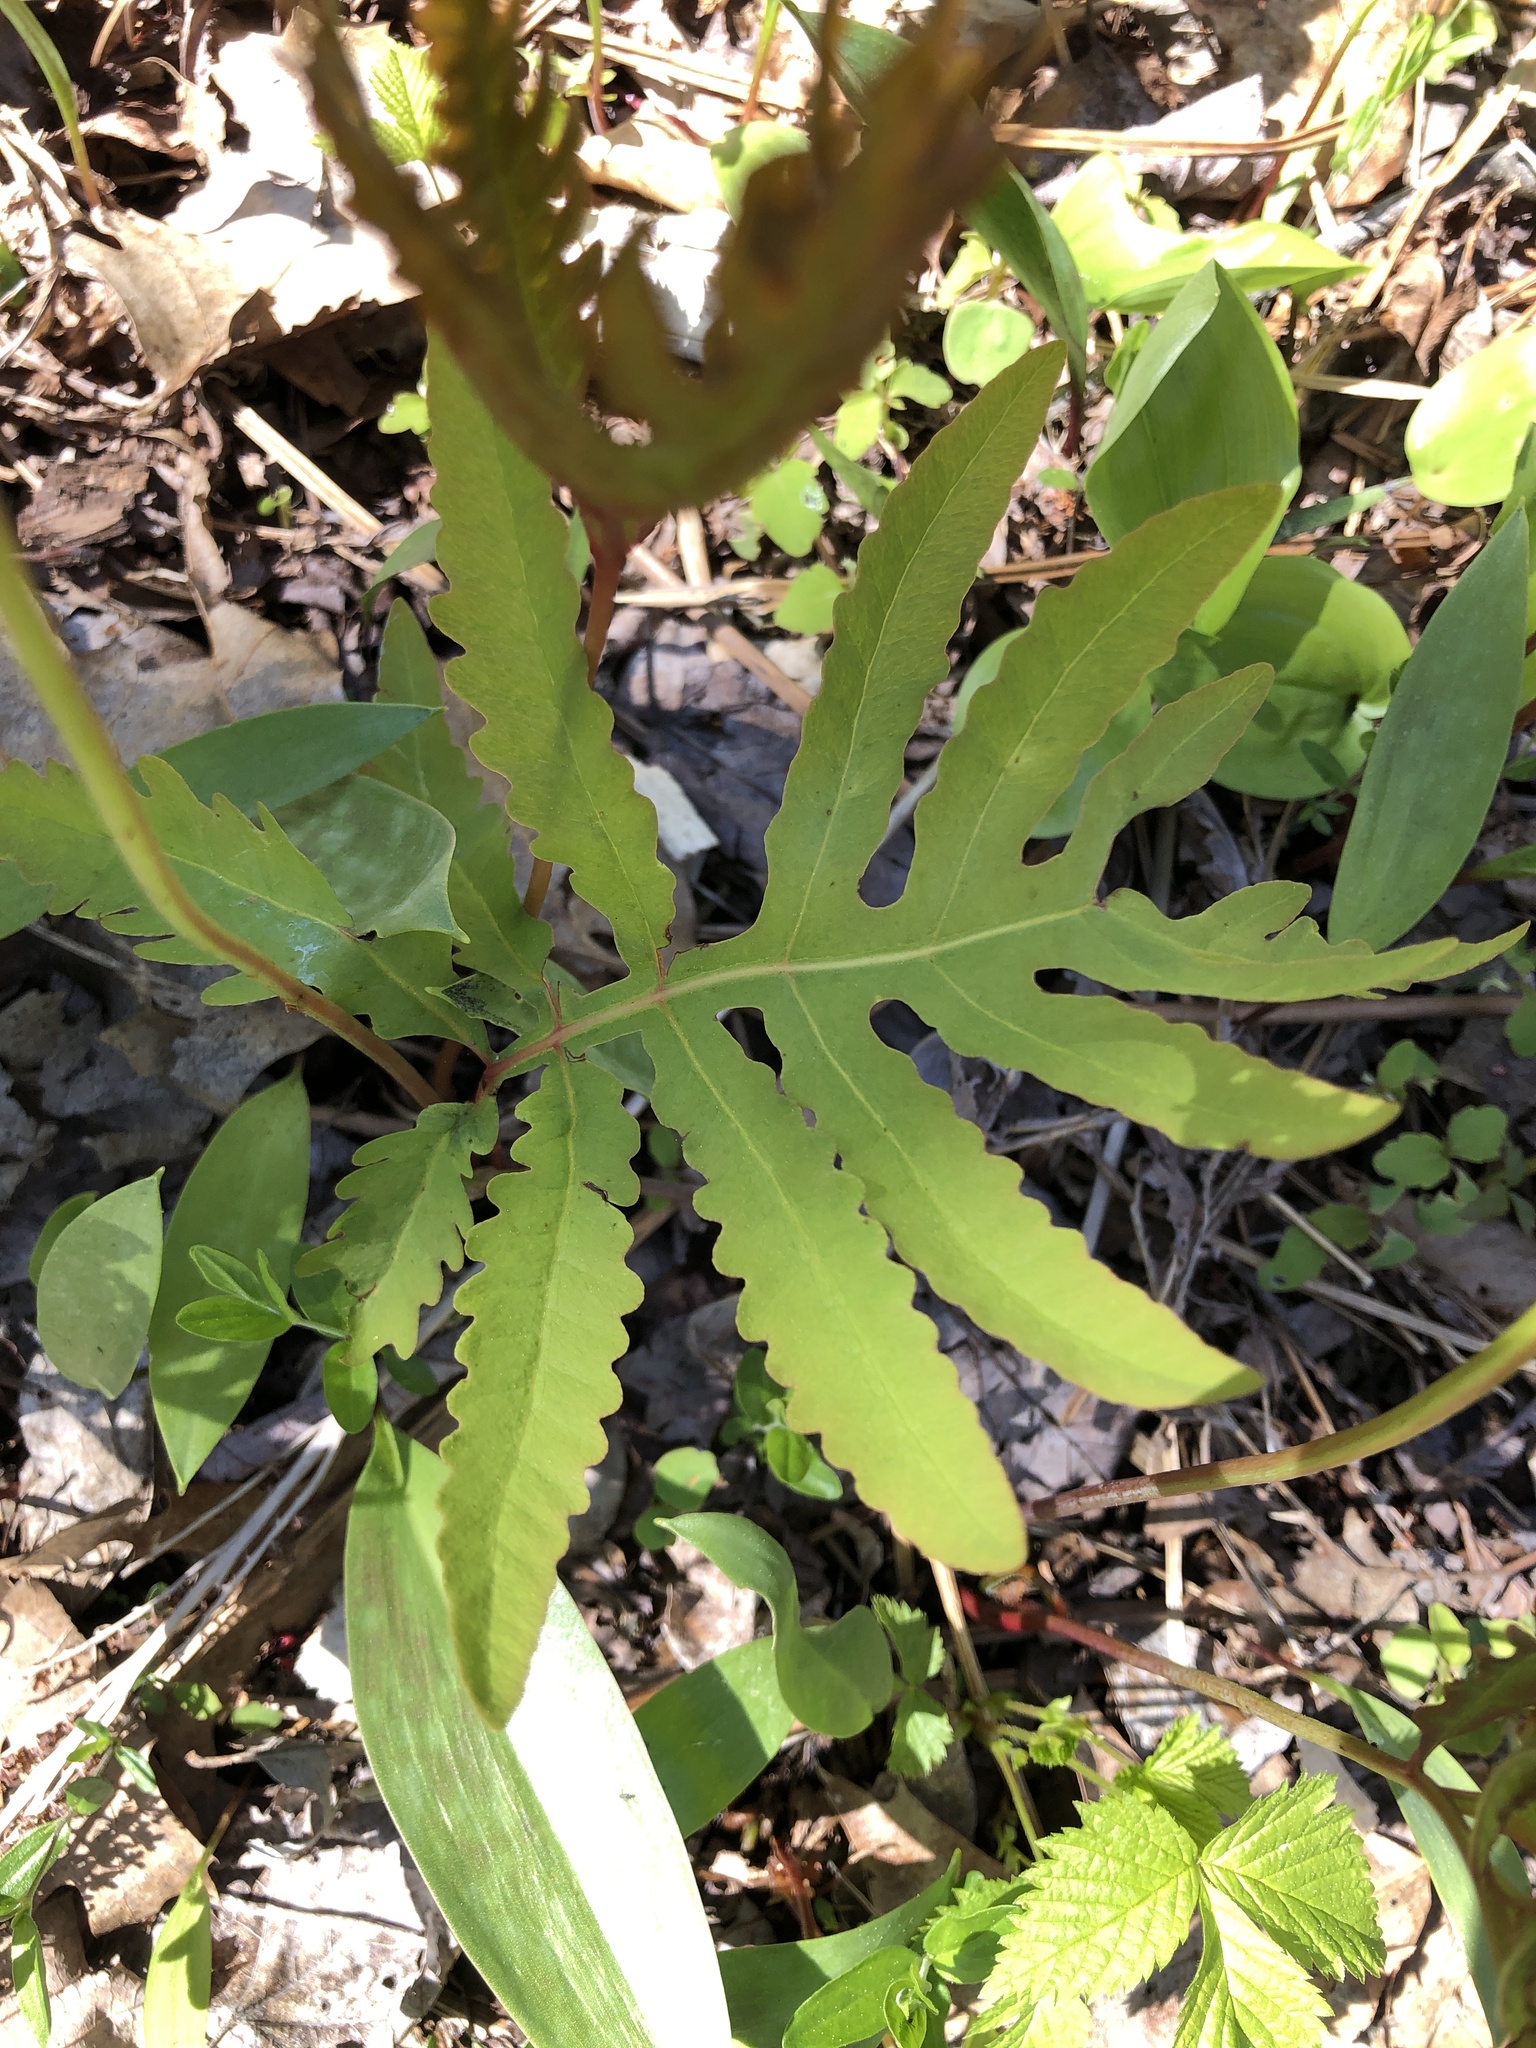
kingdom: Plantae
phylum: Tracheophyta
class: Polypodiopsida
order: Polypodiales
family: Onocleaceae
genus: Onoclea
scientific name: Onoclea sensibilis
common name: Sensitive fern
